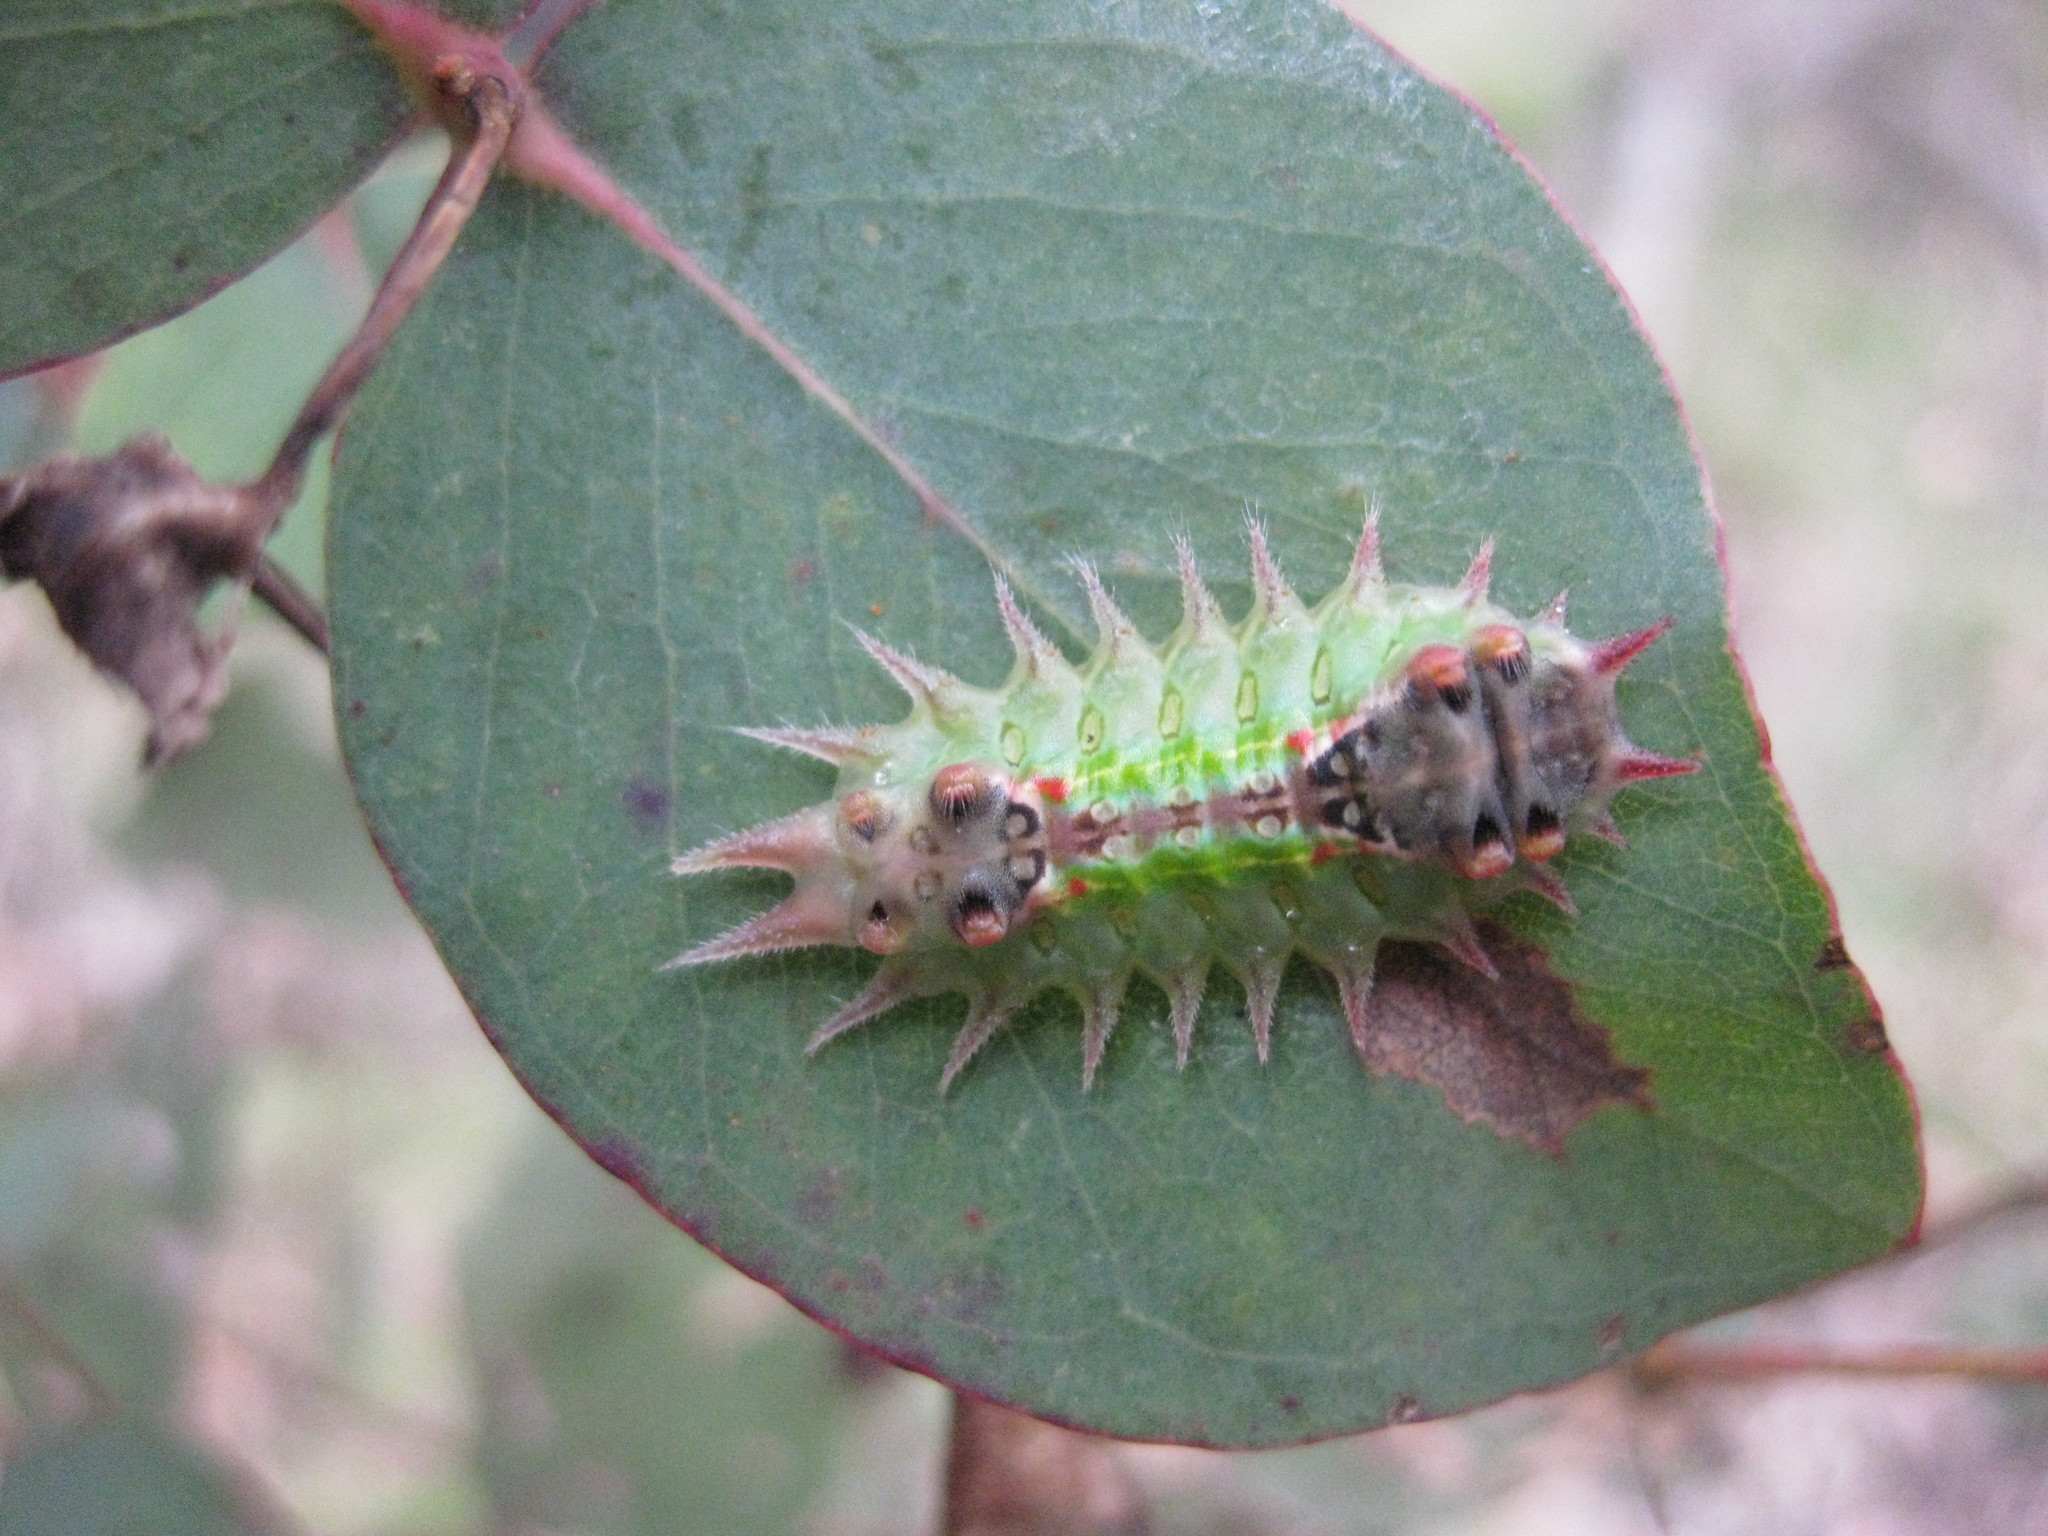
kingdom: Animalia
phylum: Arthropoda
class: Insecta
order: Lepidoptera
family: Limacodidae
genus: Doratifera
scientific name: Doratifera oxleyi
